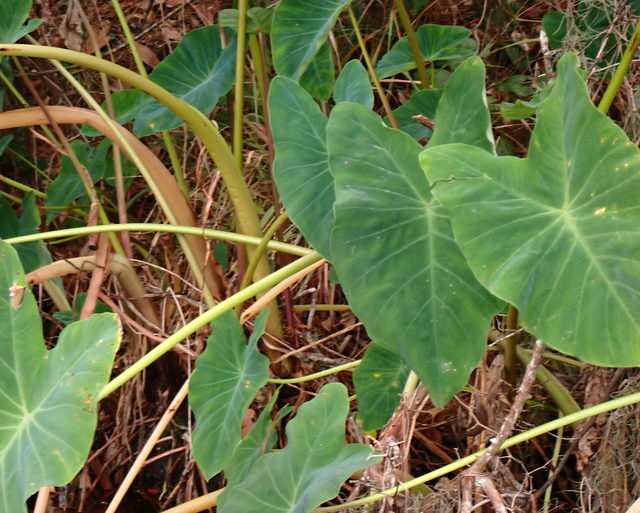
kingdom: Plantae
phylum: Tracheophyta
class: Liliopsida
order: Alismatales
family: Araceae
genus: Colocasia
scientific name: Colocasia esculenta
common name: Taro
